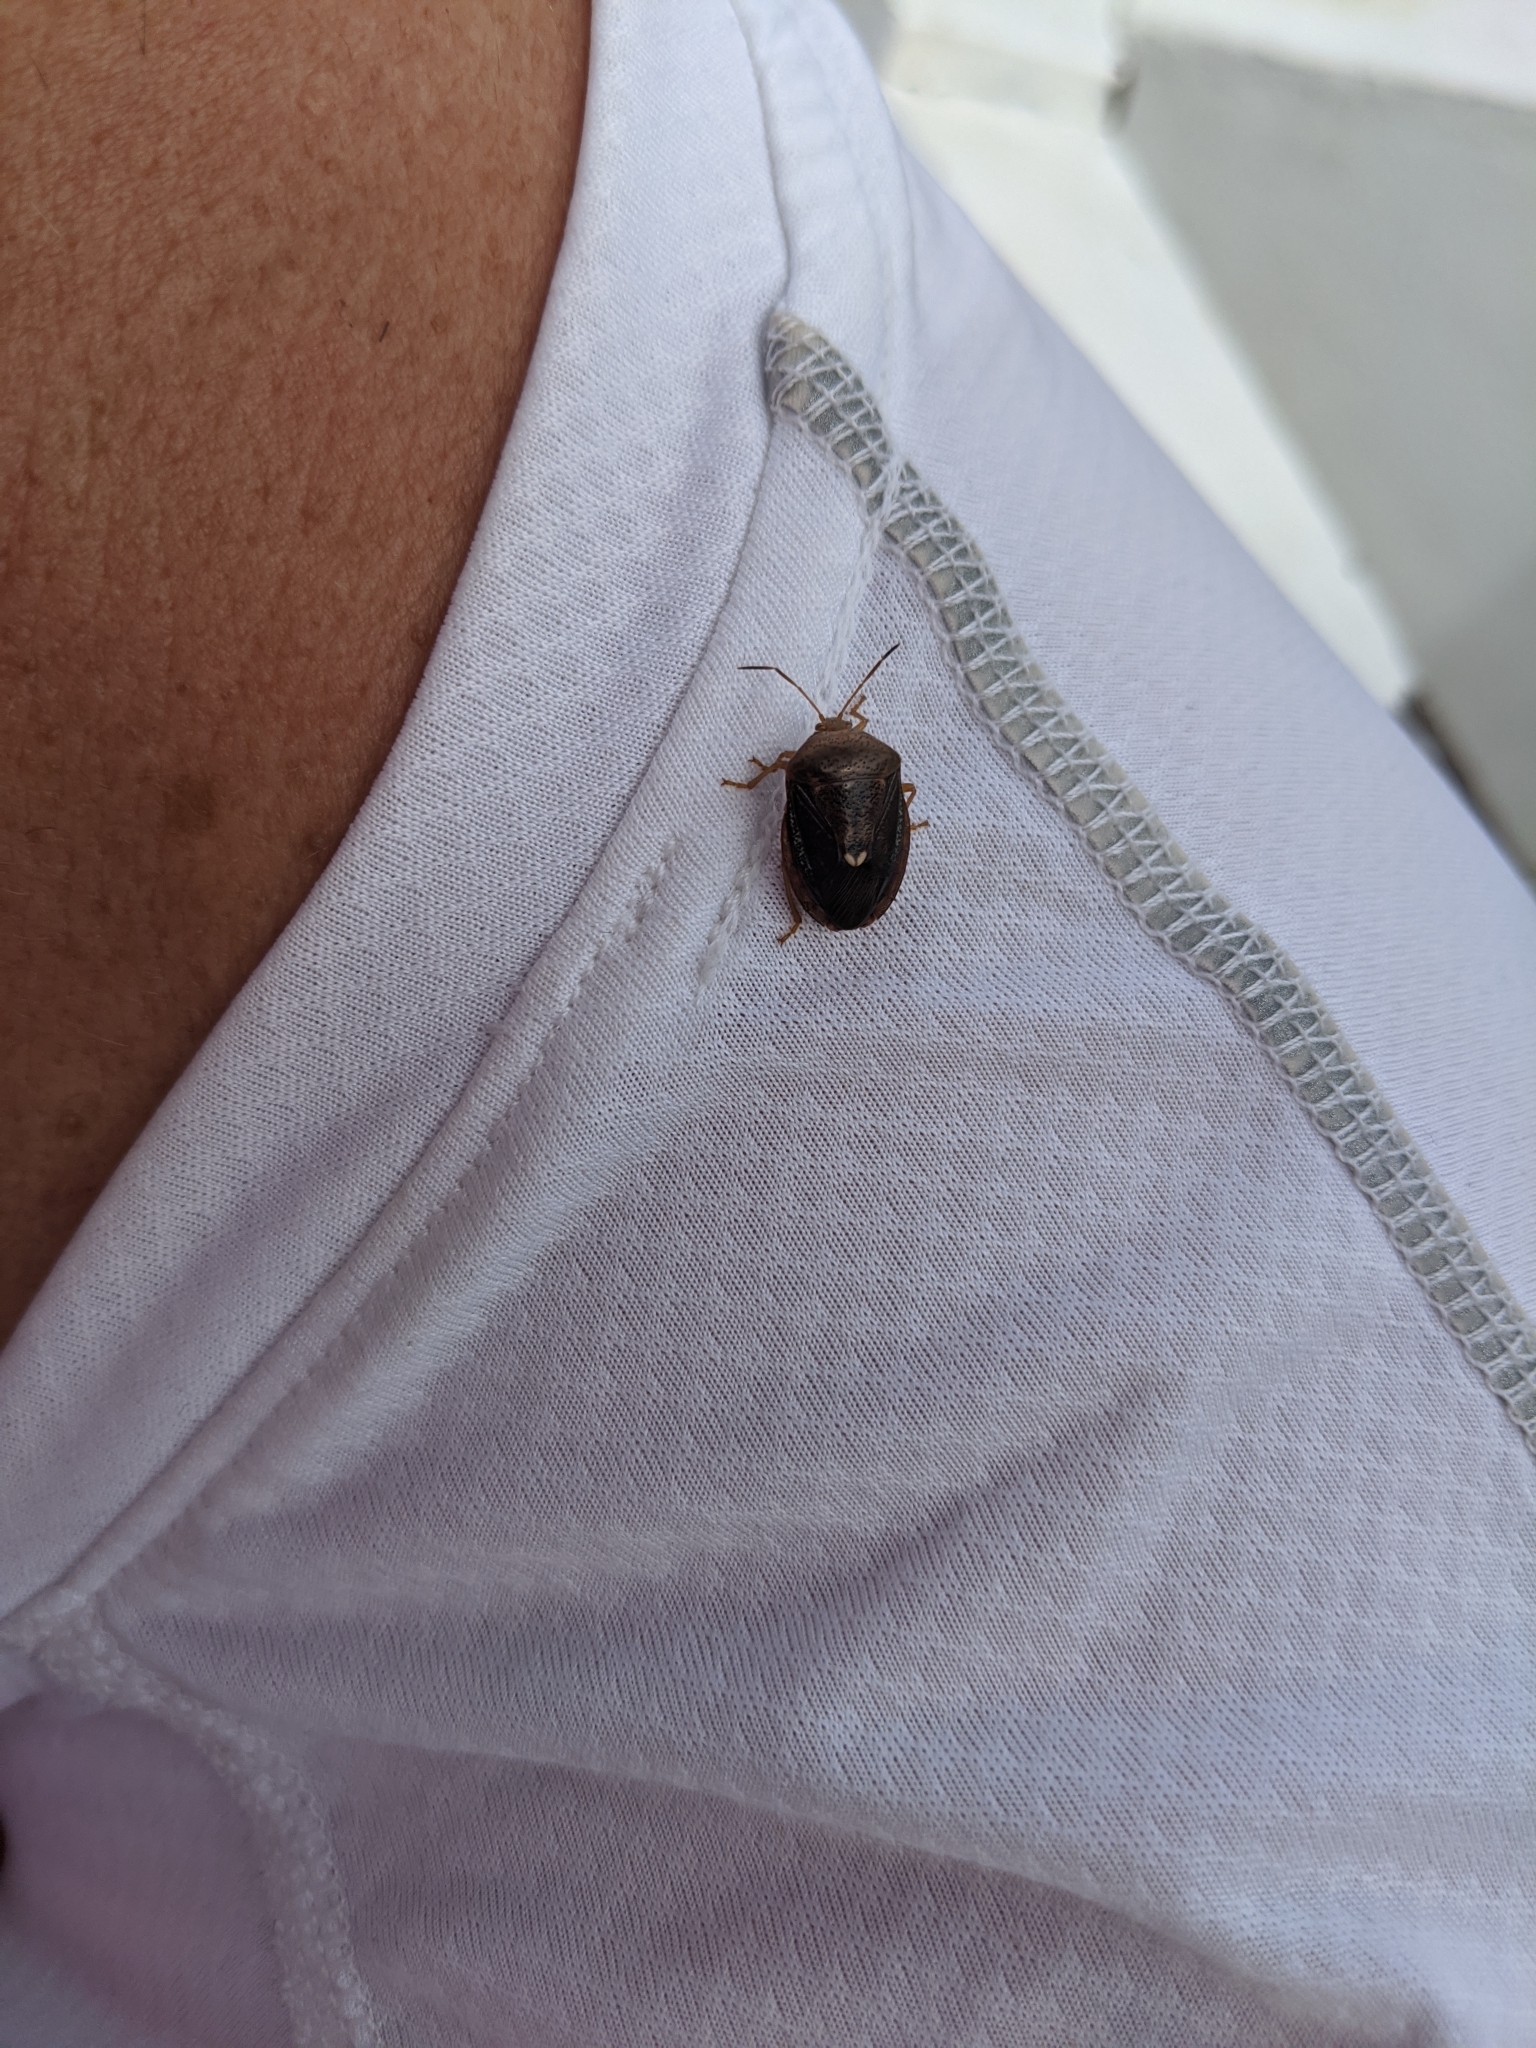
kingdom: Animalia
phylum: Arthropoda
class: Insecta
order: Hemiptera
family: Pentatomidae
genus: Edessa
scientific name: Edessa bifida
